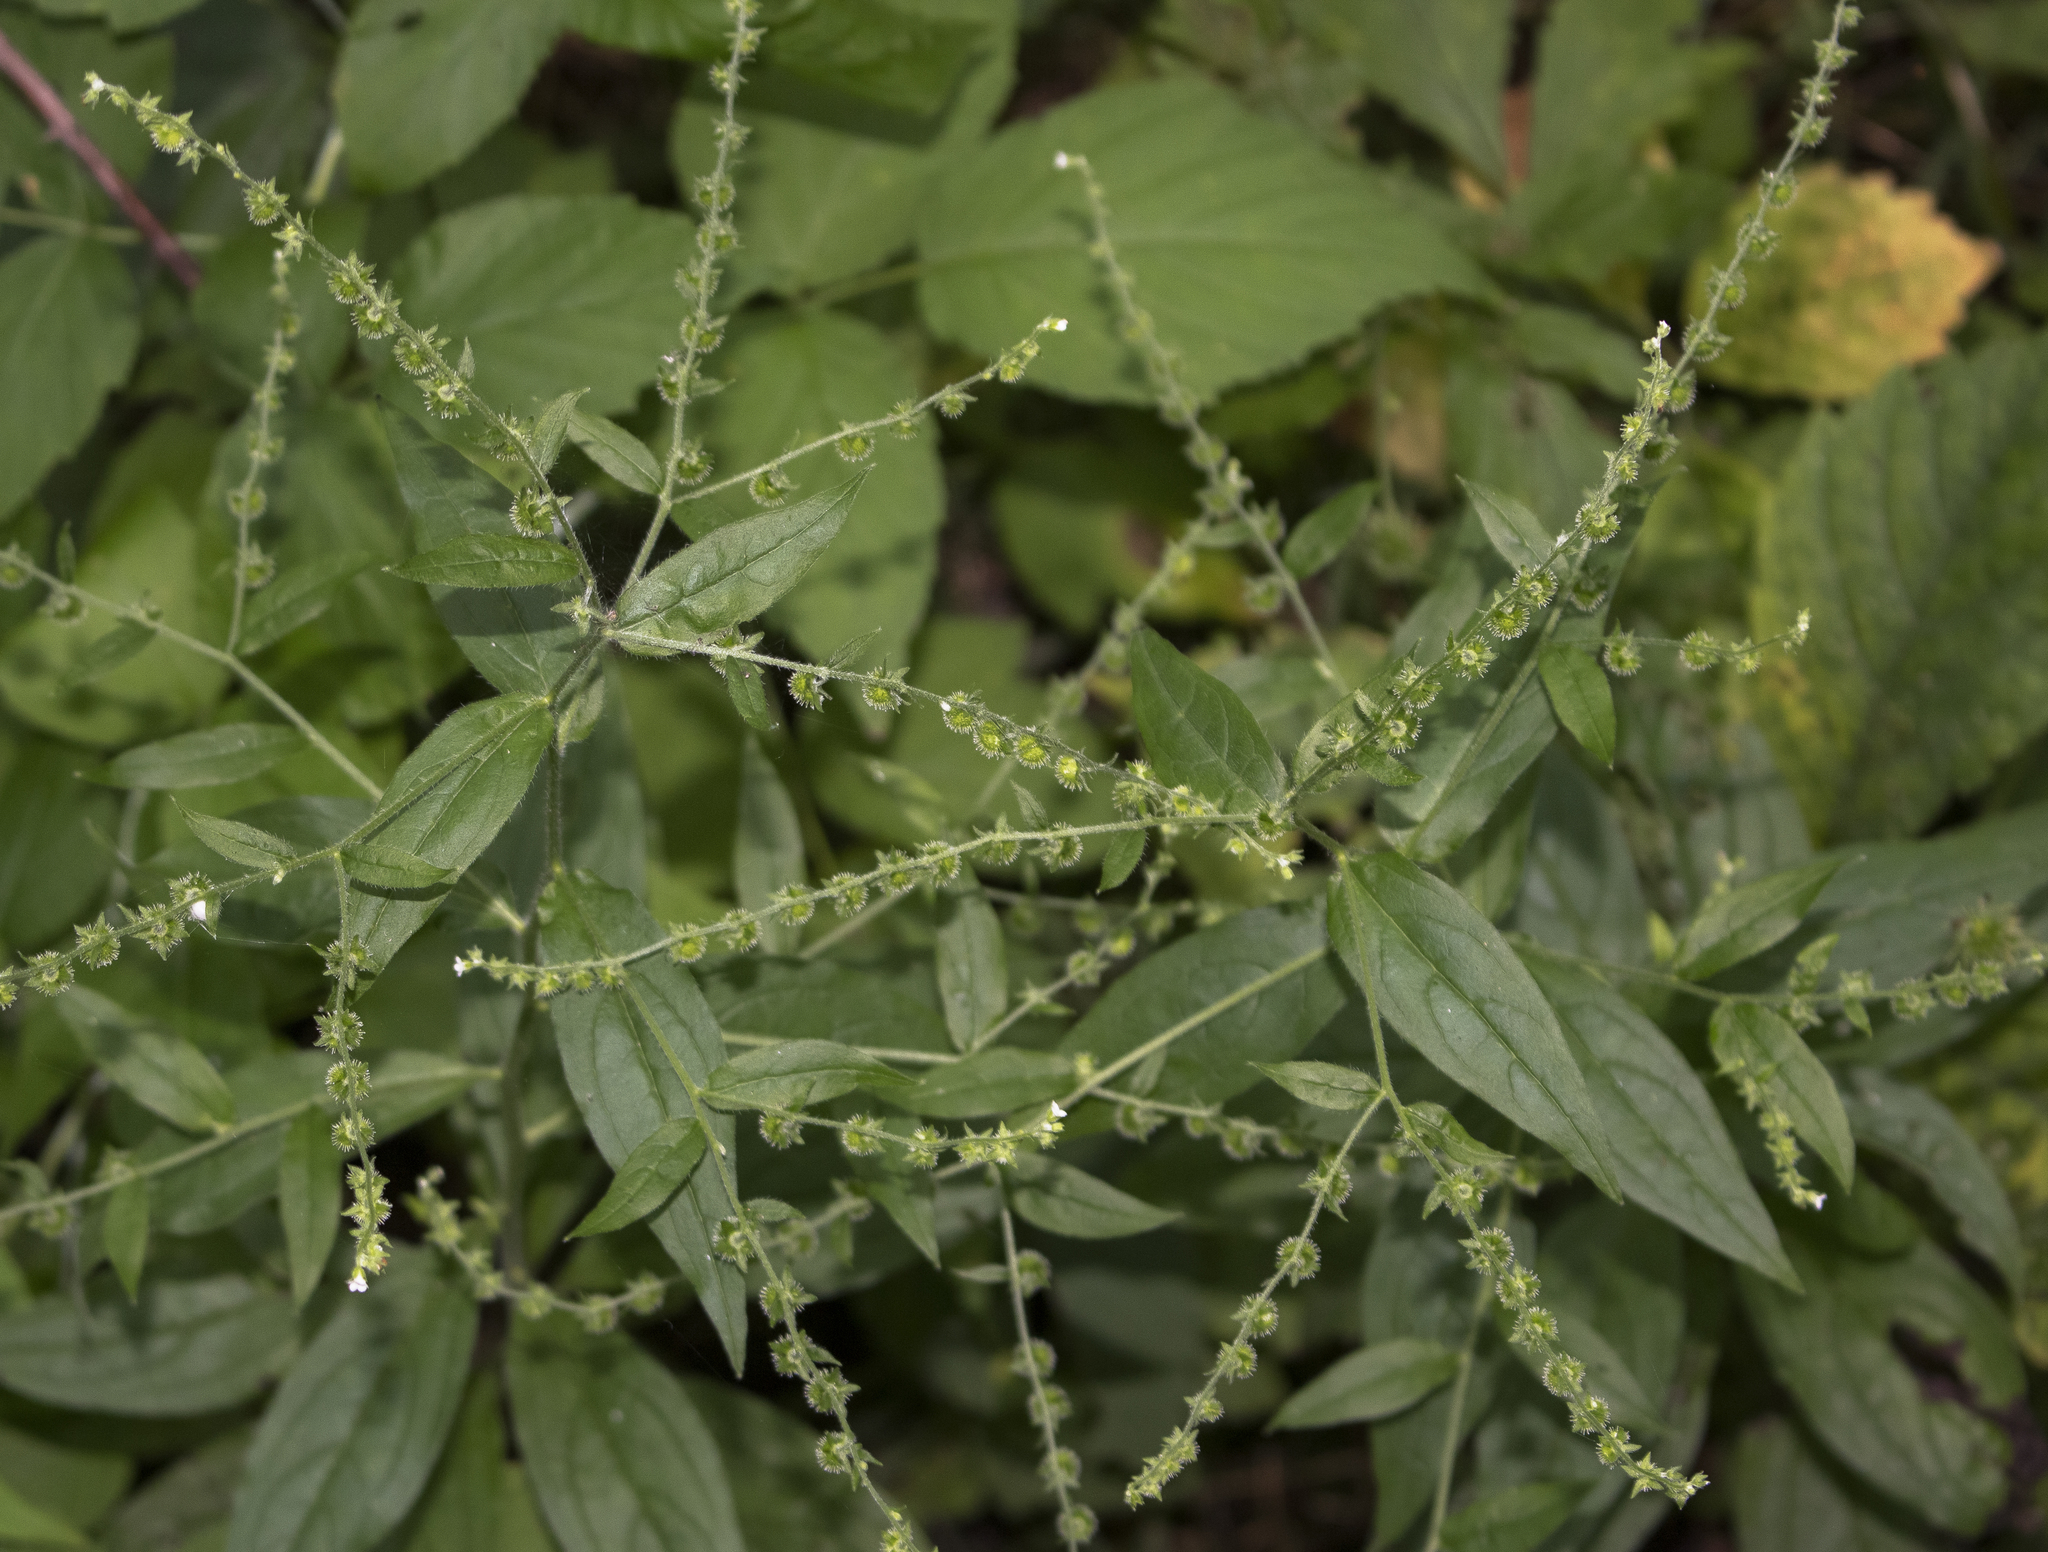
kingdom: Plantae
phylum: Tracheophyta
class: Magnoliopsida
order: Boraginales
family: Boraginaceae
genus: Hackelia
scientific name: Hackelia virginiana
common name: Beggar's-lice
